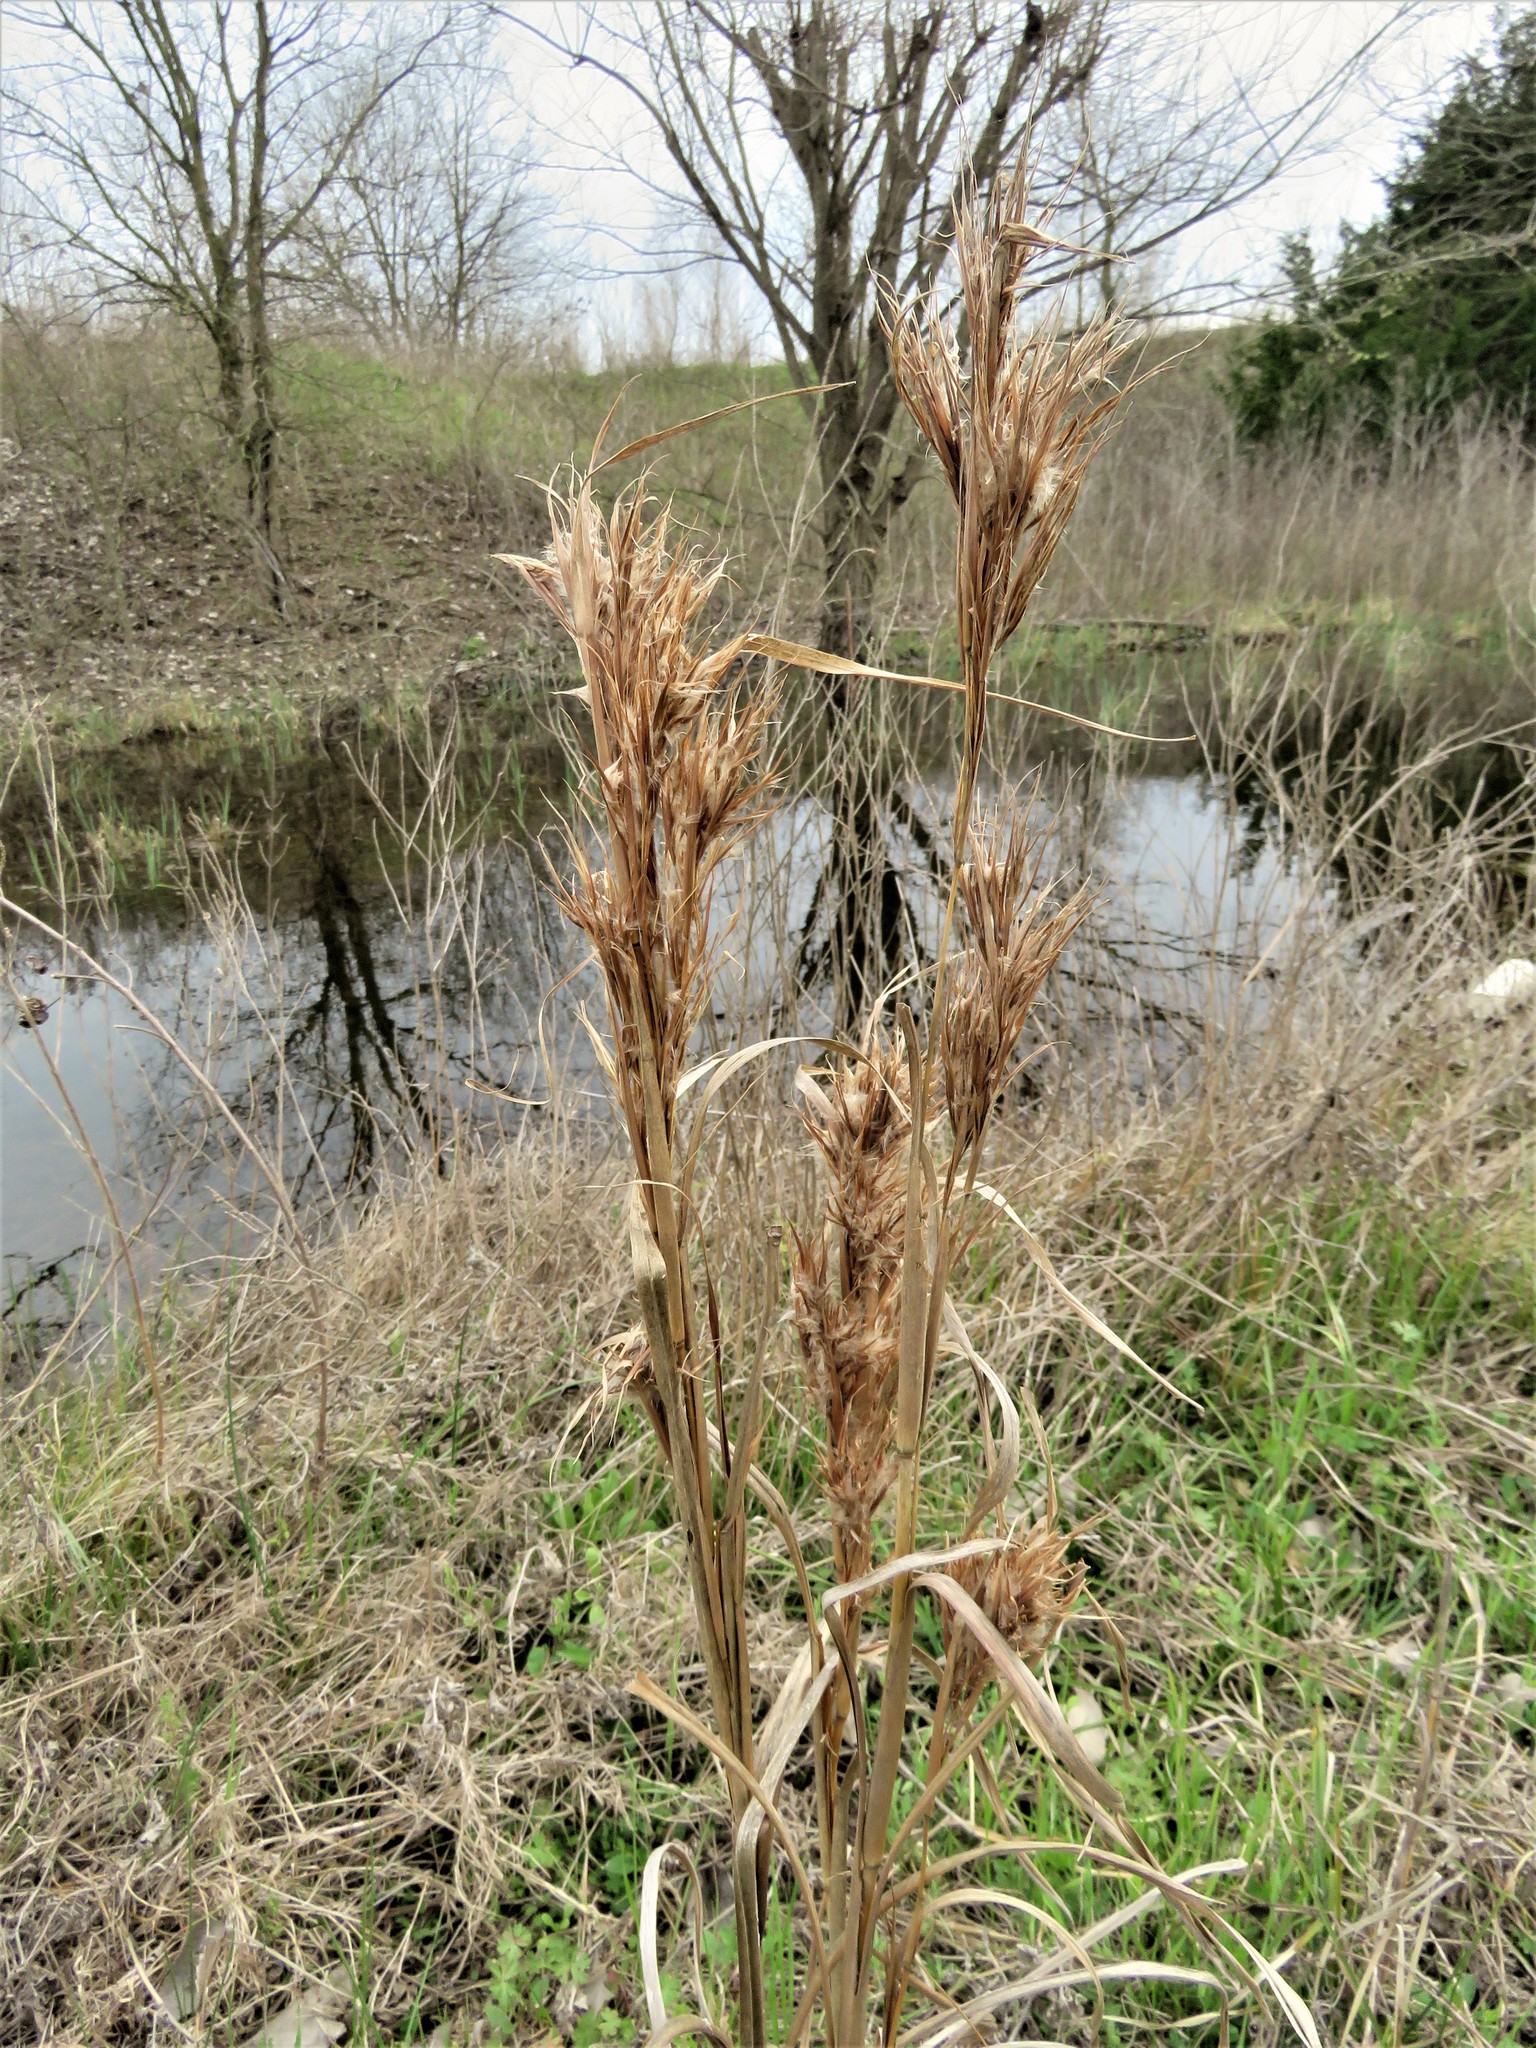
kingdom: Plantae
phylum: Tracheophyta
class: Liliopsida
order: Poales
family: Poaceae
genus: Andropogon
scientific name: Andropogon tenuispatheus
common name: Bushy bluestem
